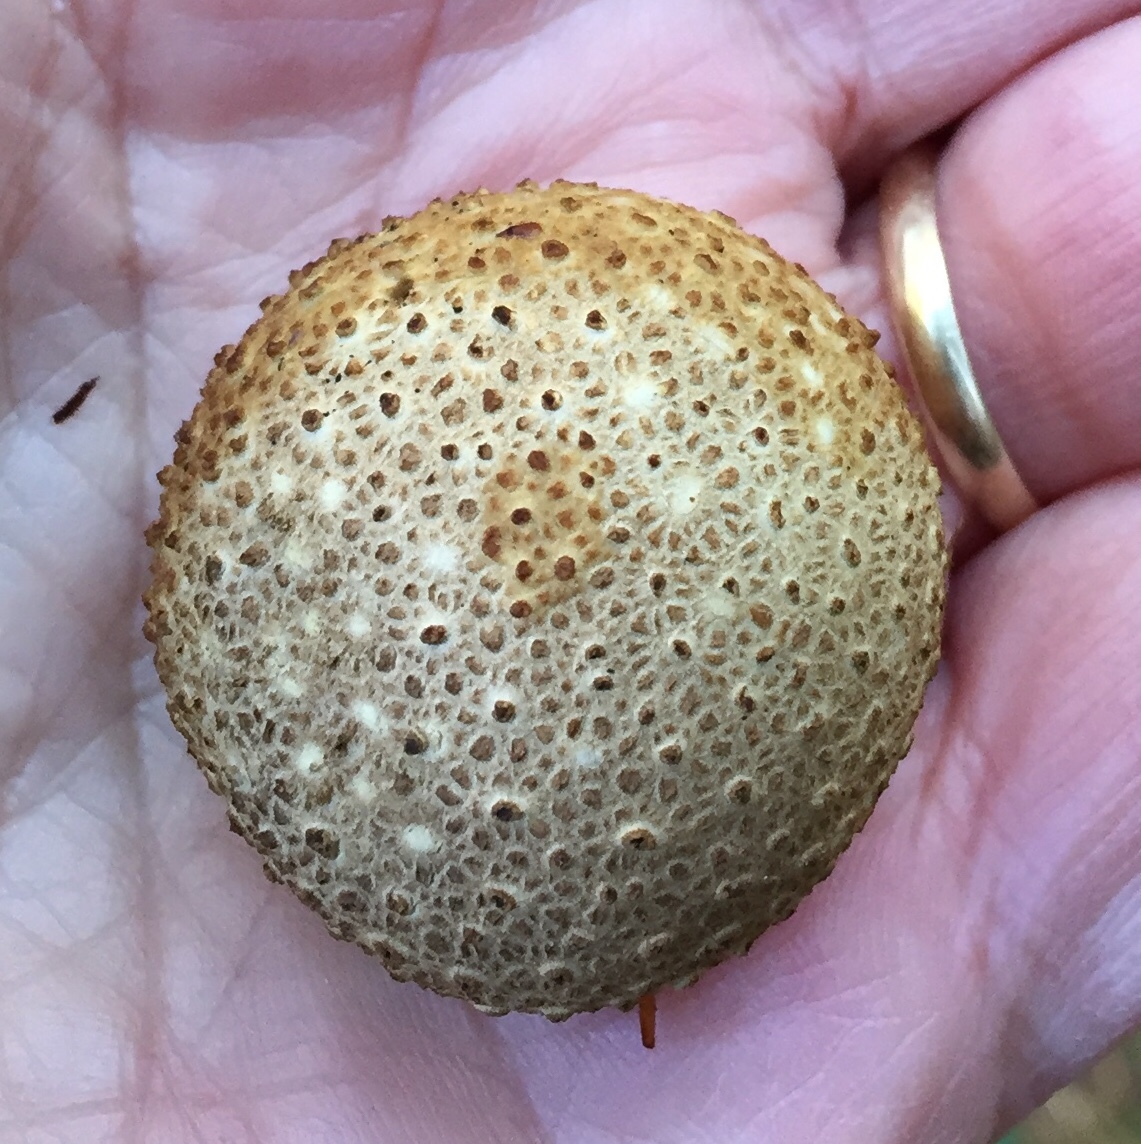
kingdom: Fungi
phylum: Basidiomycota
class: Agaricomycetes
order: Boletales
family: Sclerodermataceae
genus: Scleroderma
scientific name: Scleroderma citrinum
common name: Common earthball
